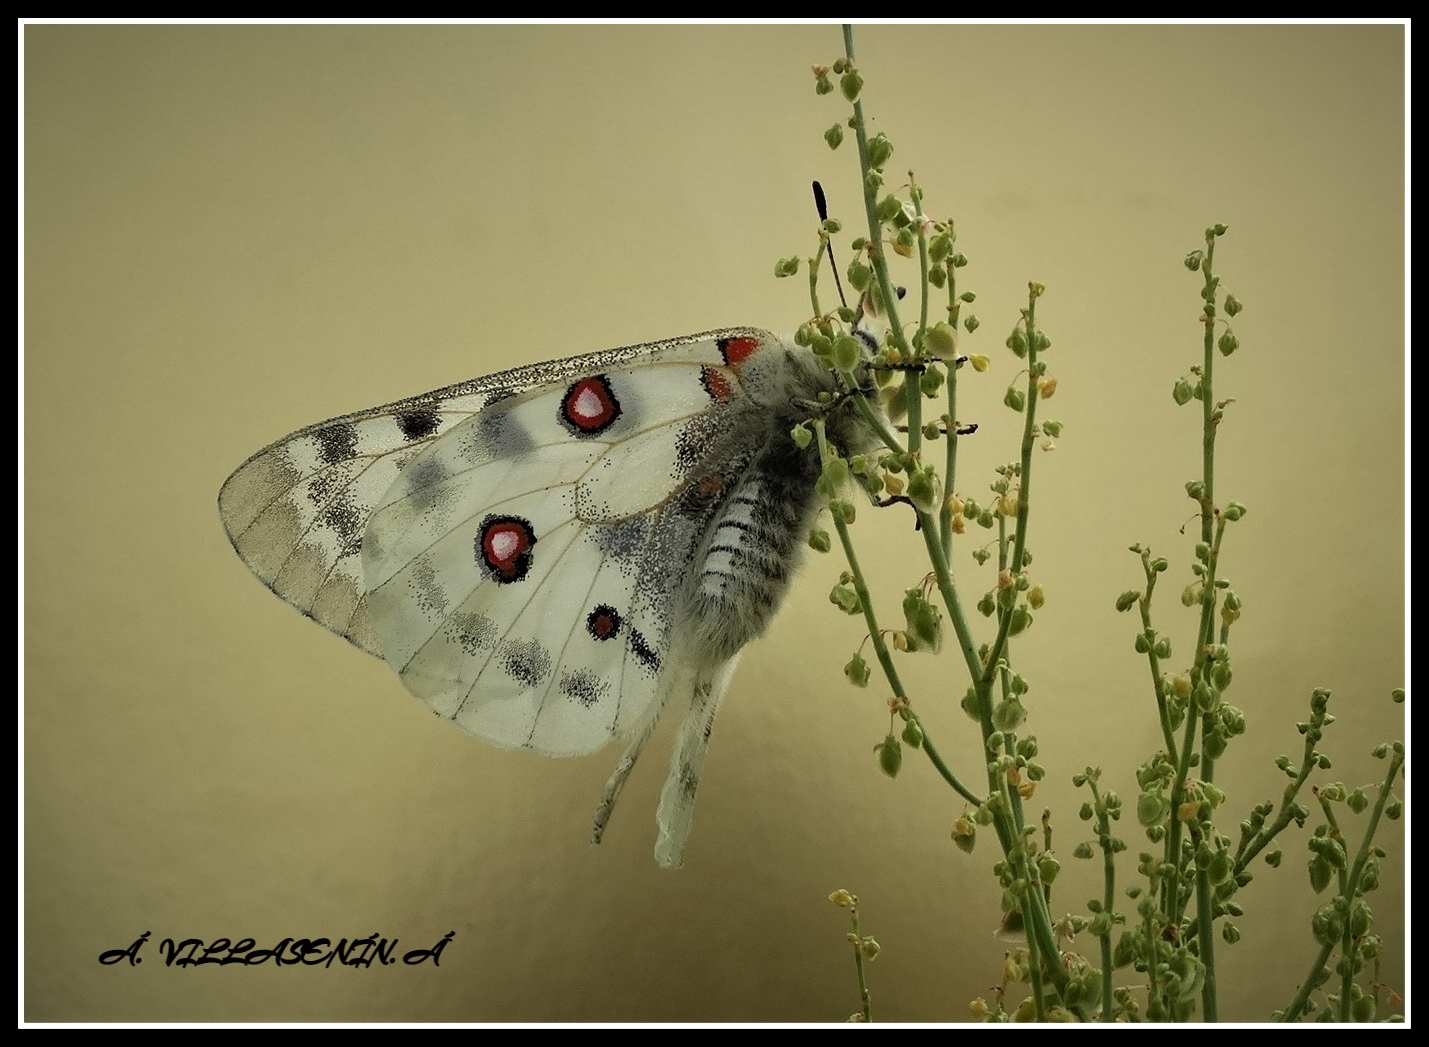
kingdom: Animalia
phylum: Arthropoda
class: Insecta
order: Lepidoptera
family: Papilionidae
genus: Parnassius
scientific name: Parnassius apollo
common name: Apollo
